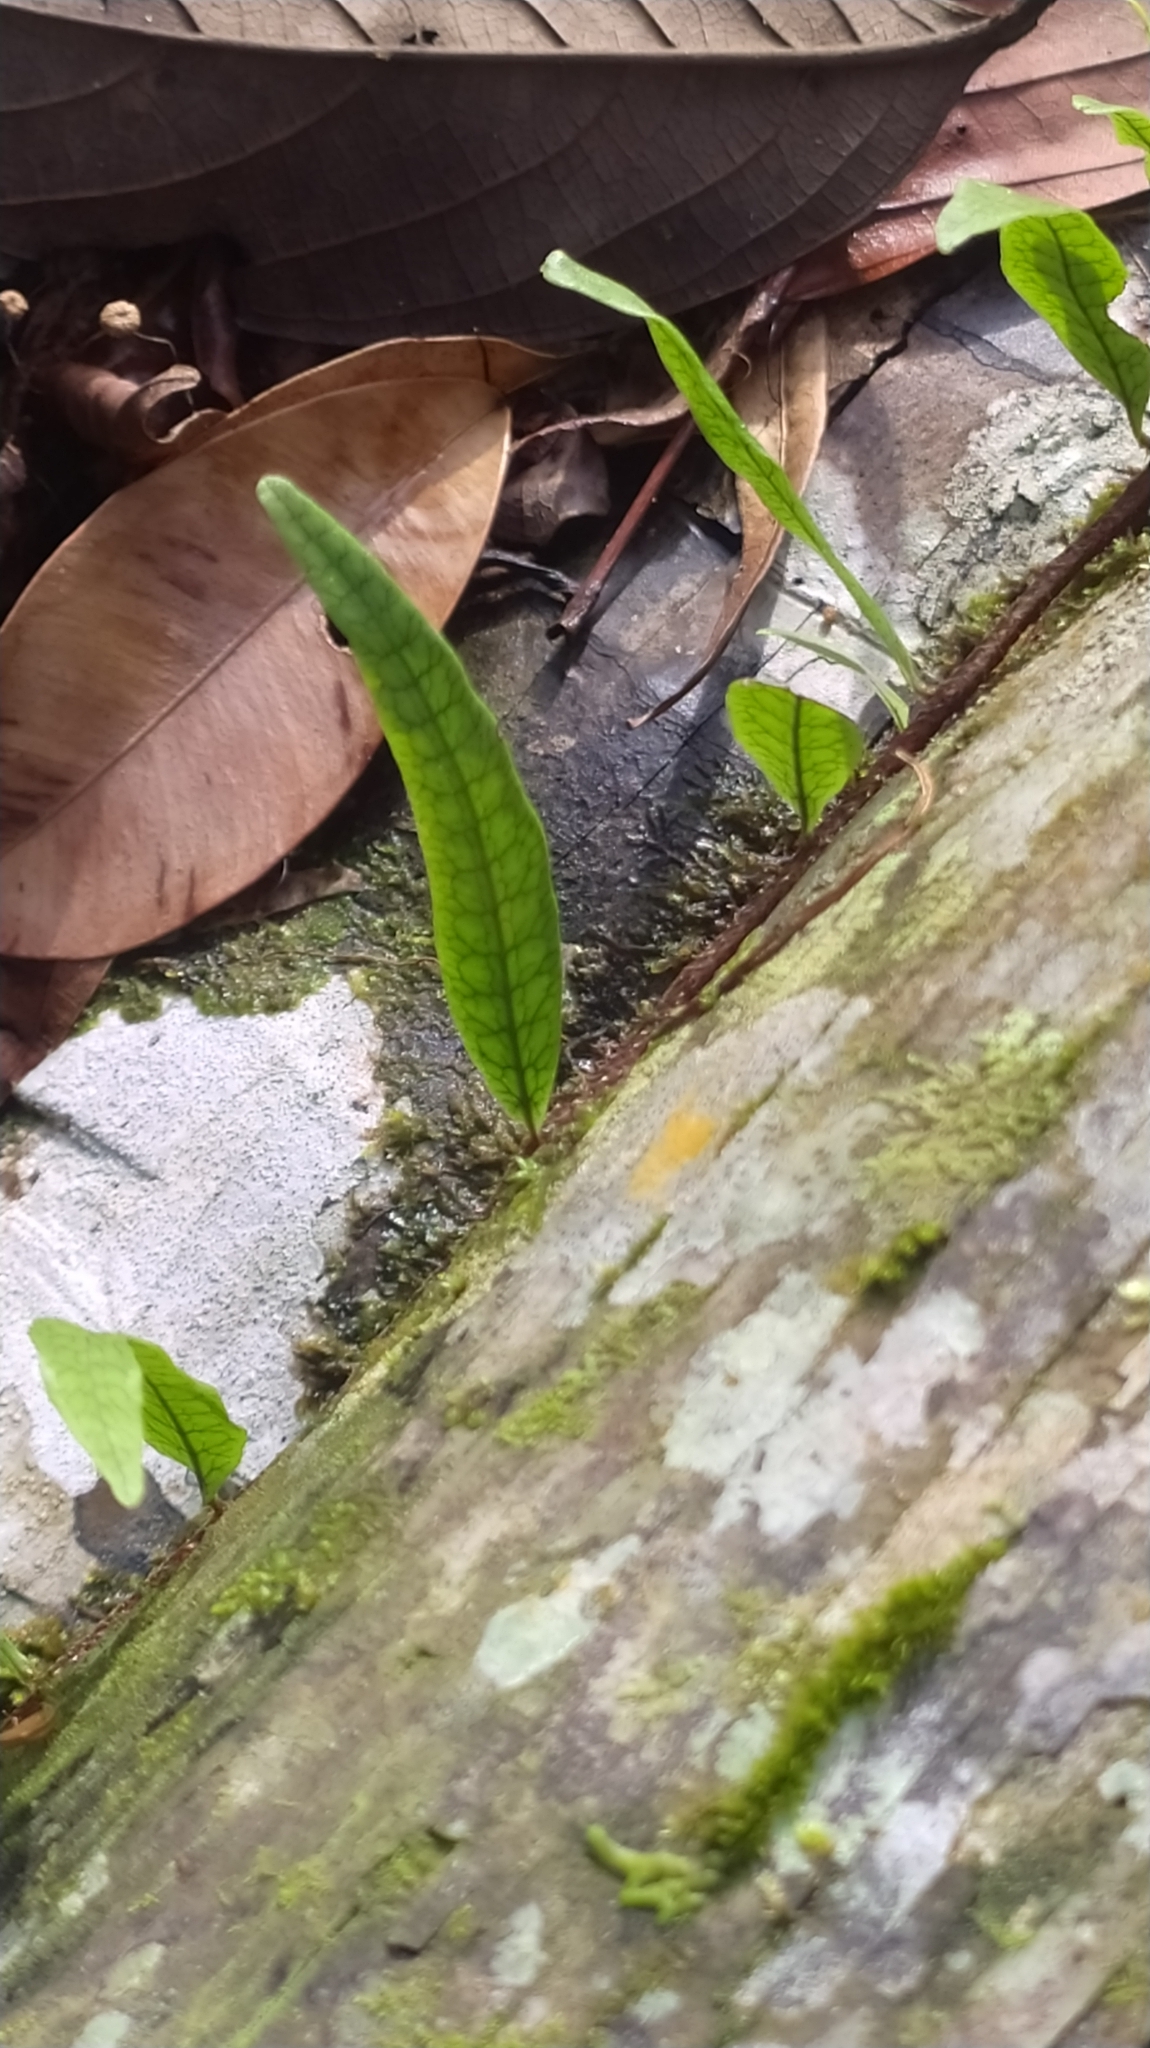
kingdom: Plantae
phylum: Tracheophyta
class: Polypodiopsida
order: Polypodiales
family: Polypodiaceae
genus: Microgramma
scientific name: Microgramma lycopodioides
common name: Bastard catclaw
